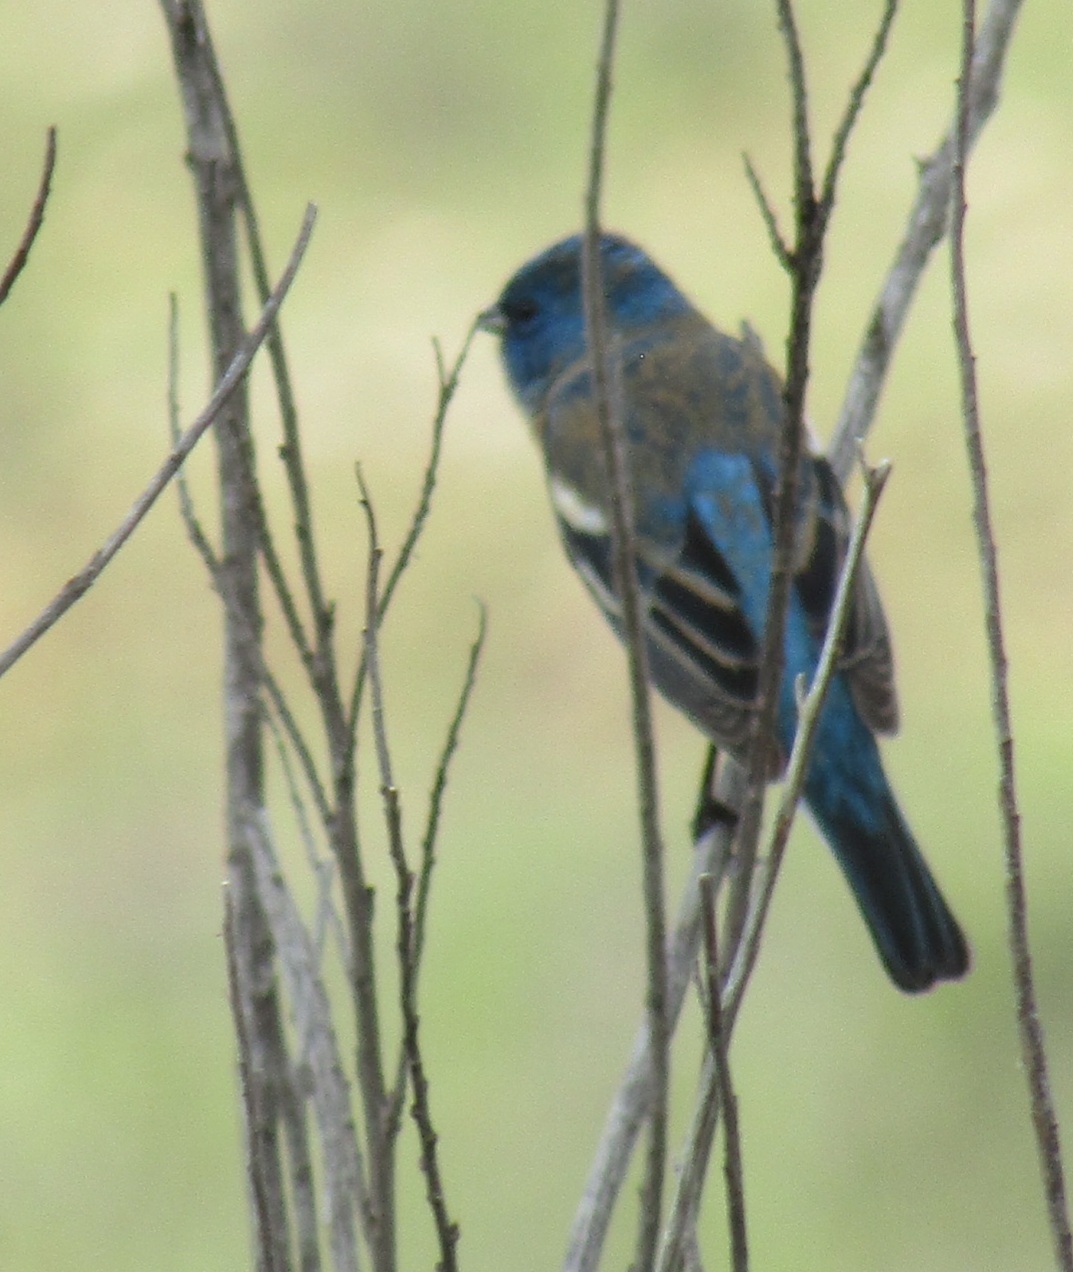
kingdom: Animalia
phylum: Chordata
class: Aves
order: Passeriformes
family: Cardinalidae
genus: Passerina
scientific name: Passerina amoena
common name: Lazuli bunting
